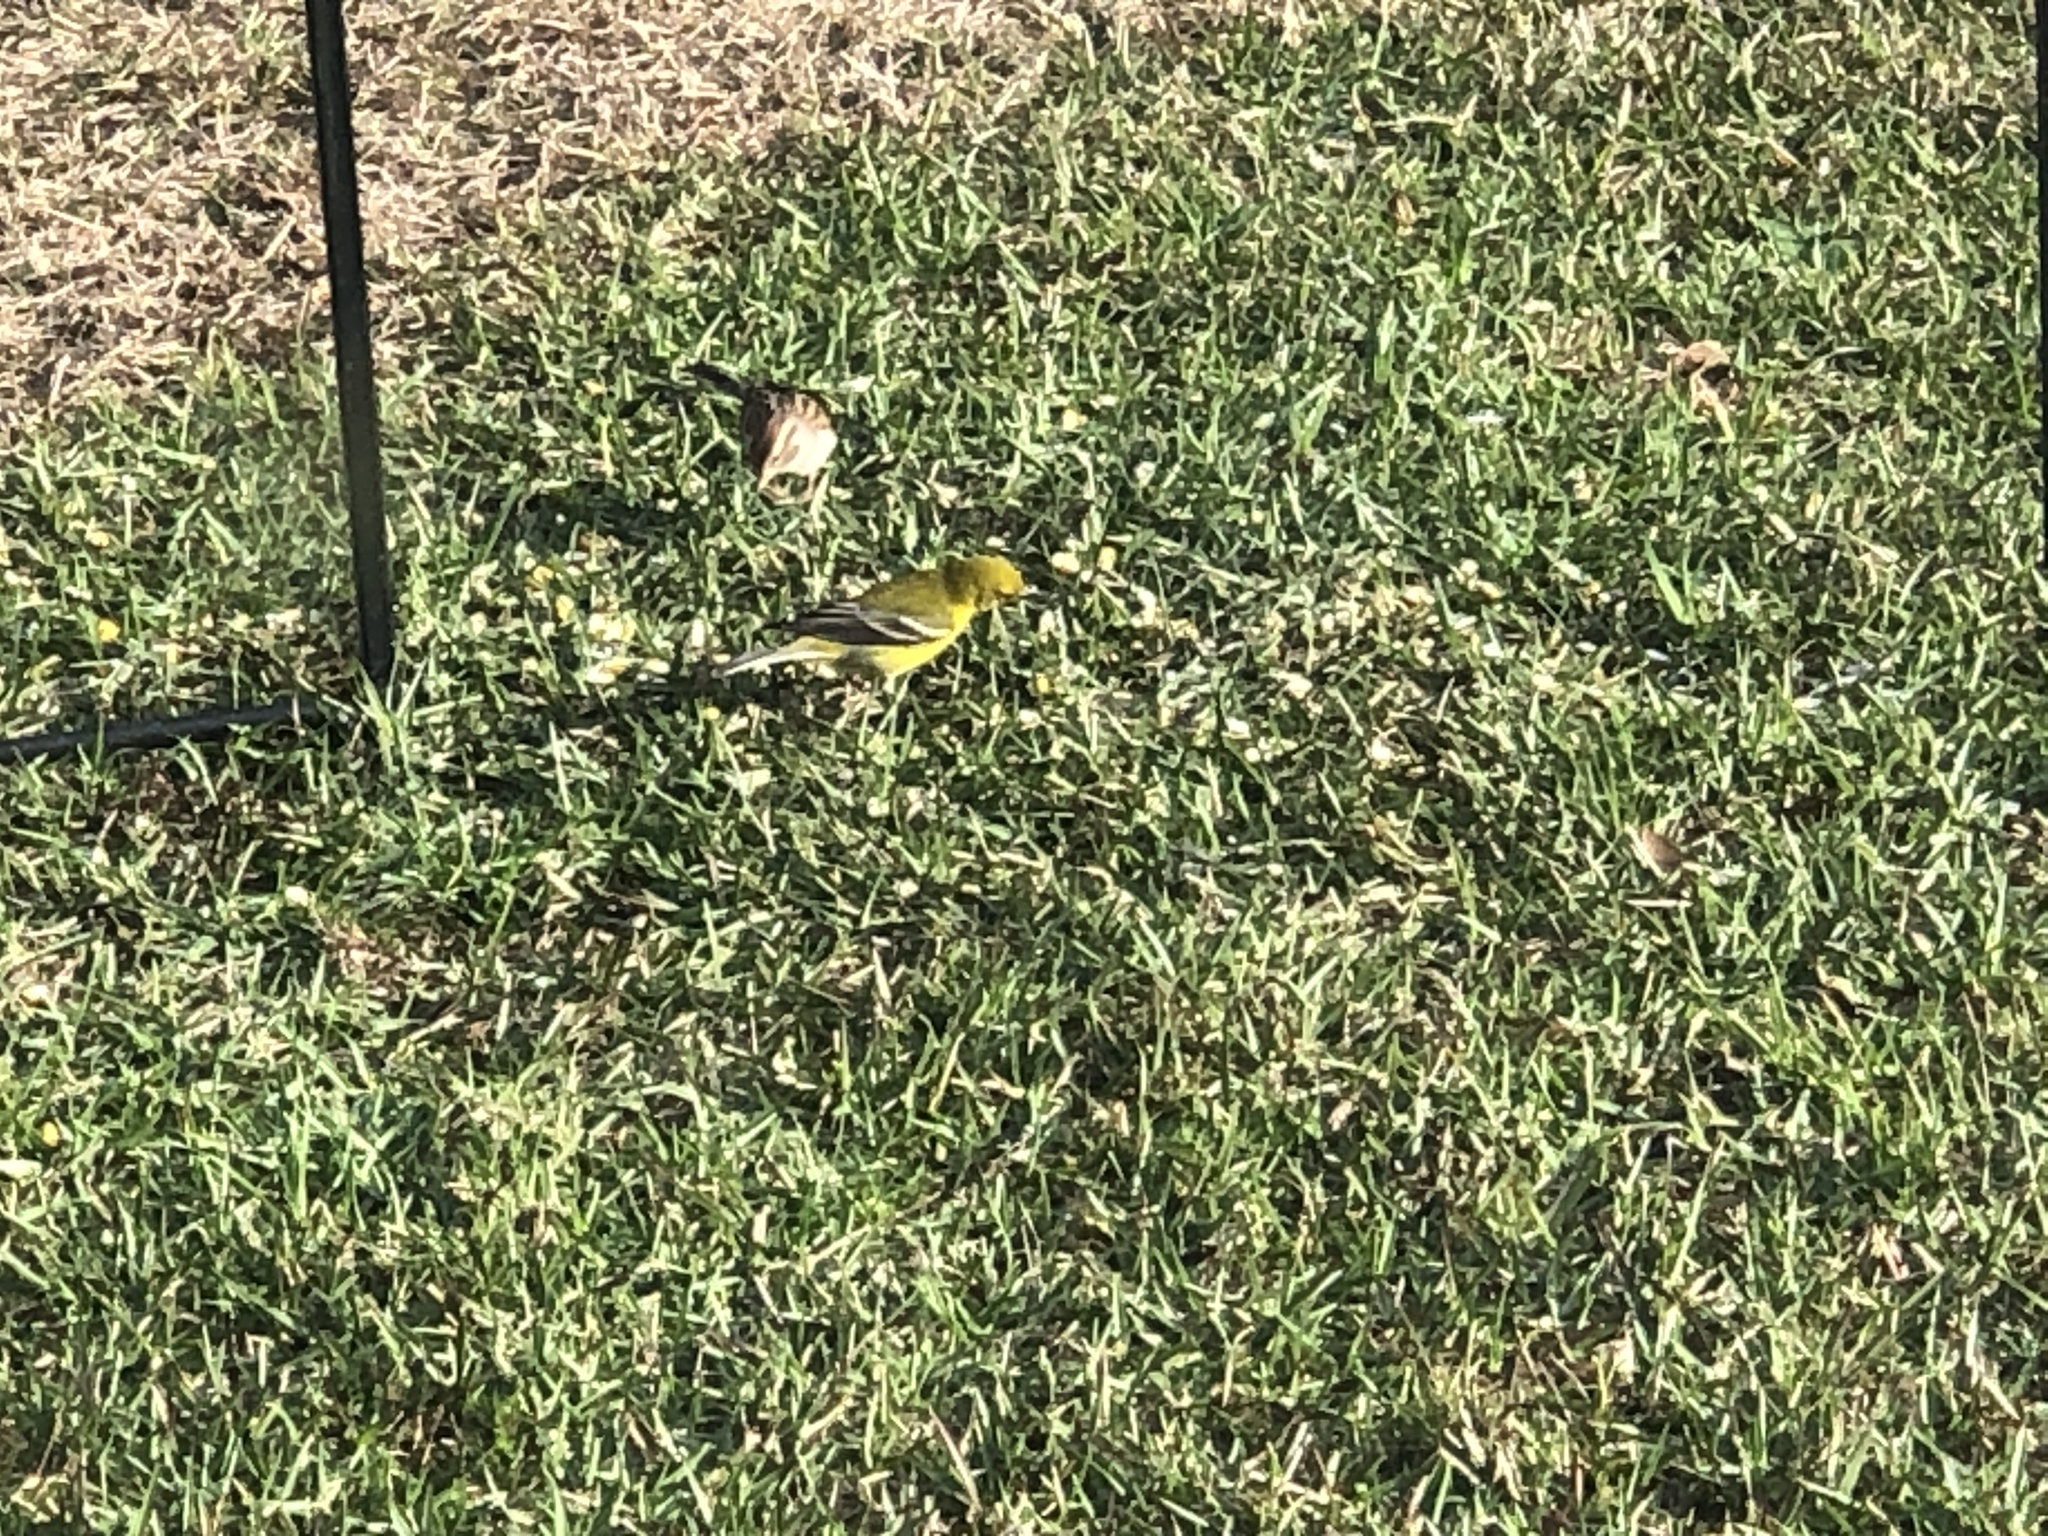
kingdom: Animalia
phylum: Chordata
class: Aves
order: Passeriformes
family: Parulidae
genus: Setophaga
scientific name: Setophaga pinus
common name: Pine warbler
